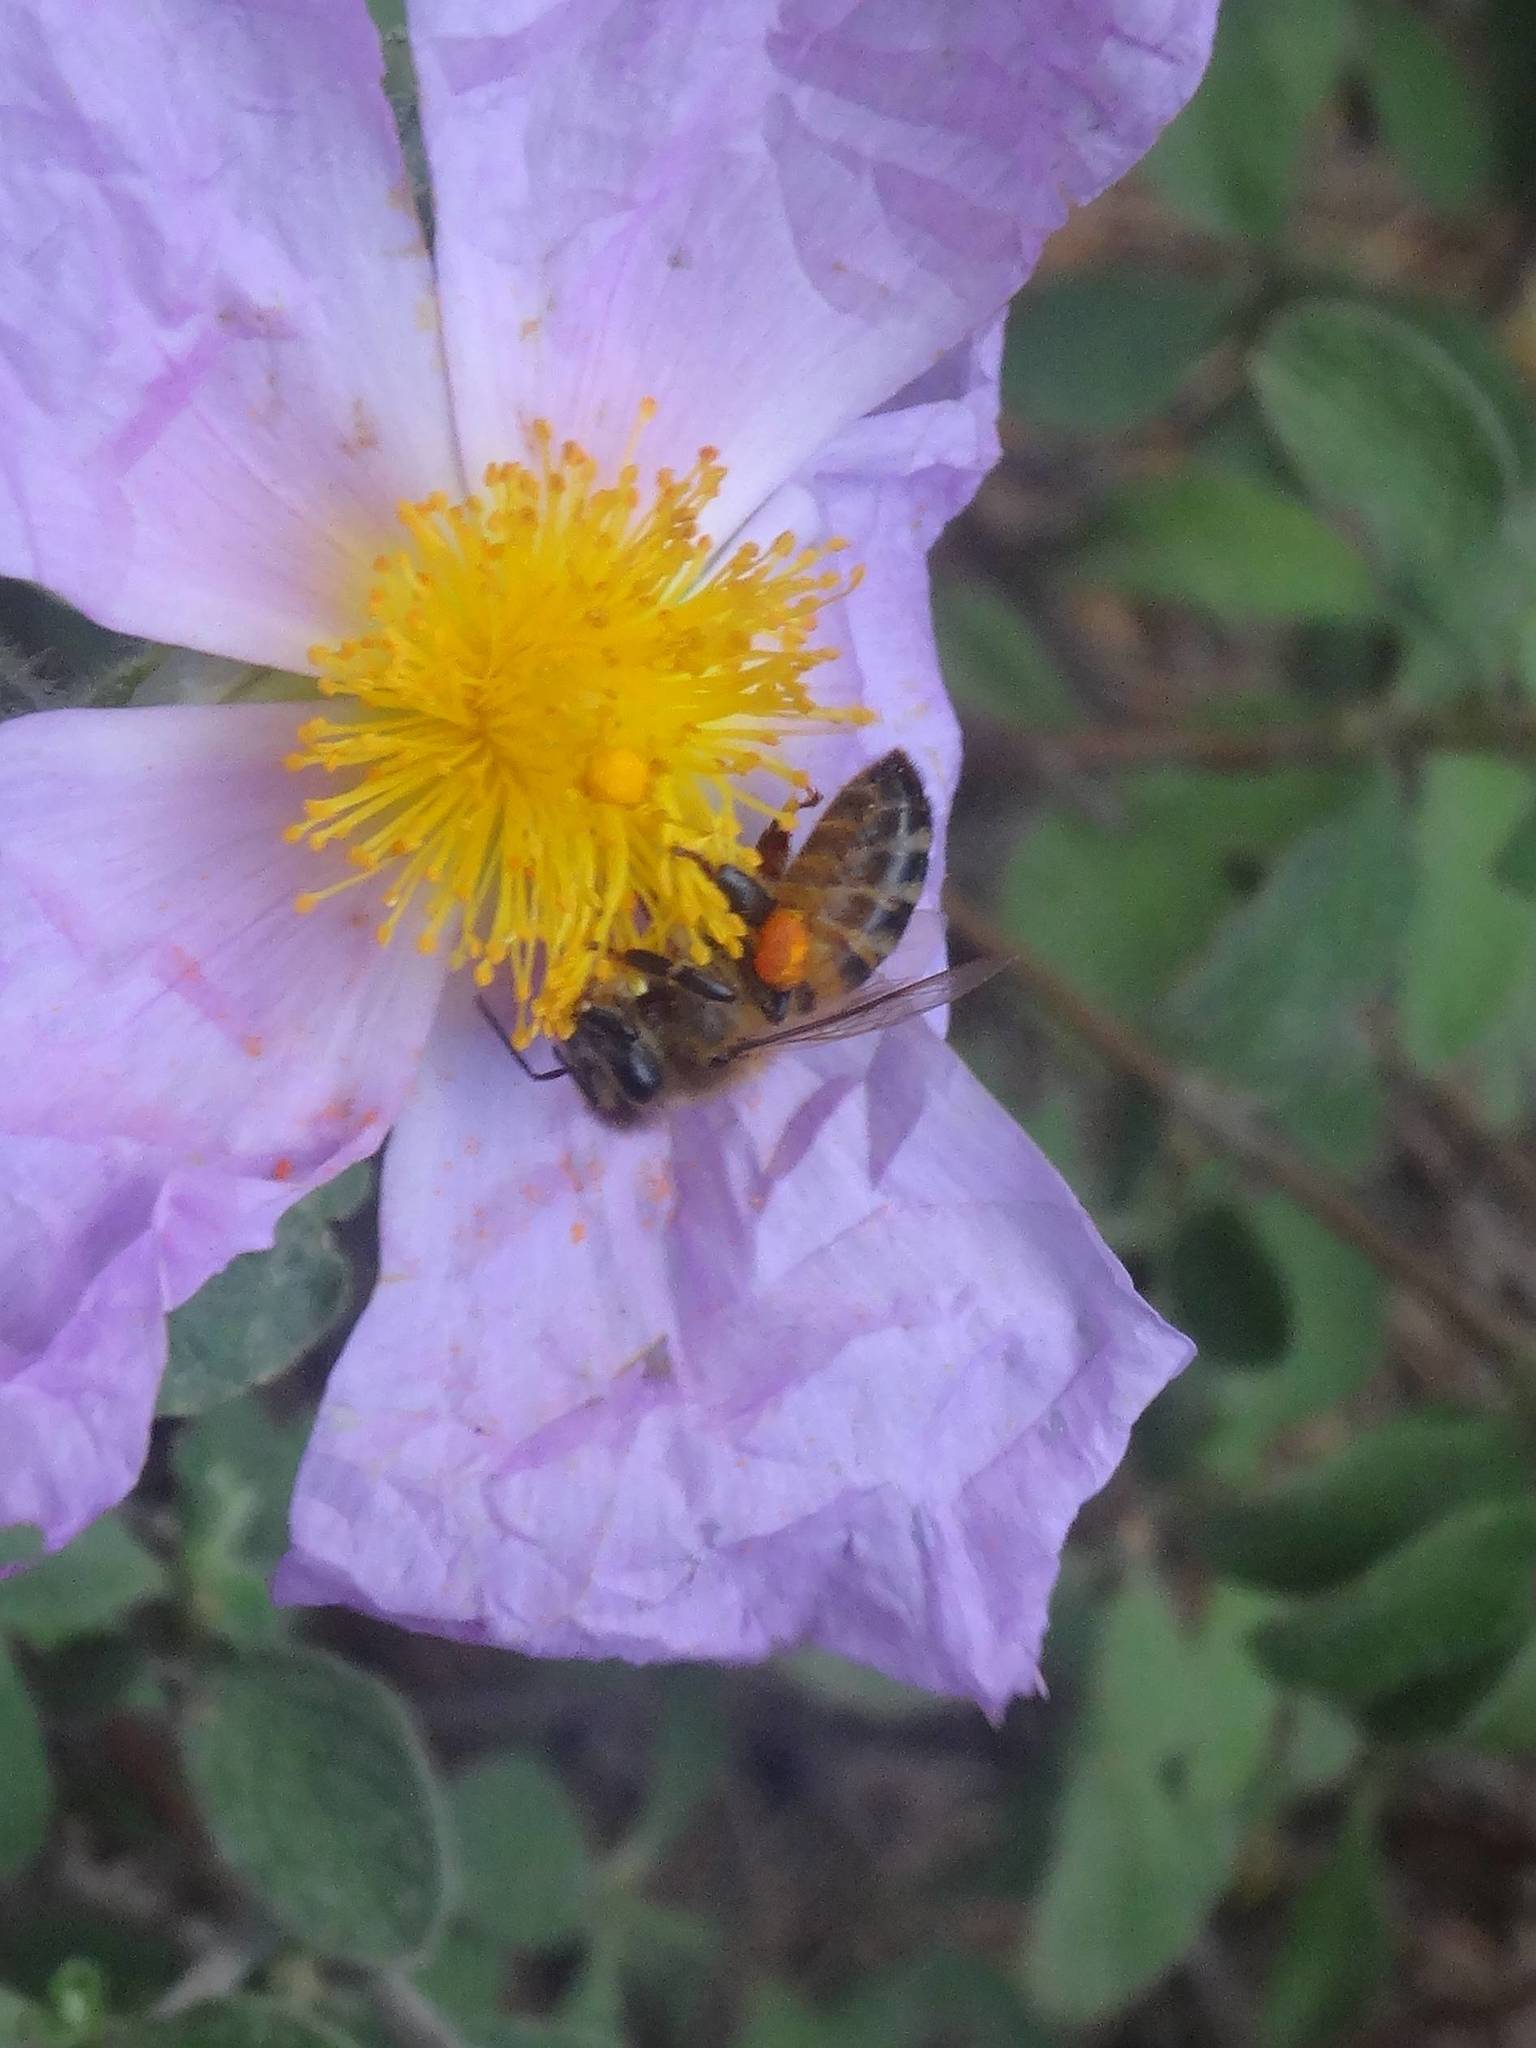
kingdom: Animalia
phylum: Arthropoda
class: Insecta
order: Hymenoptera
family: Apidae
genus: Apis
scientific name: Apis mellifera
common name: Honey bee
